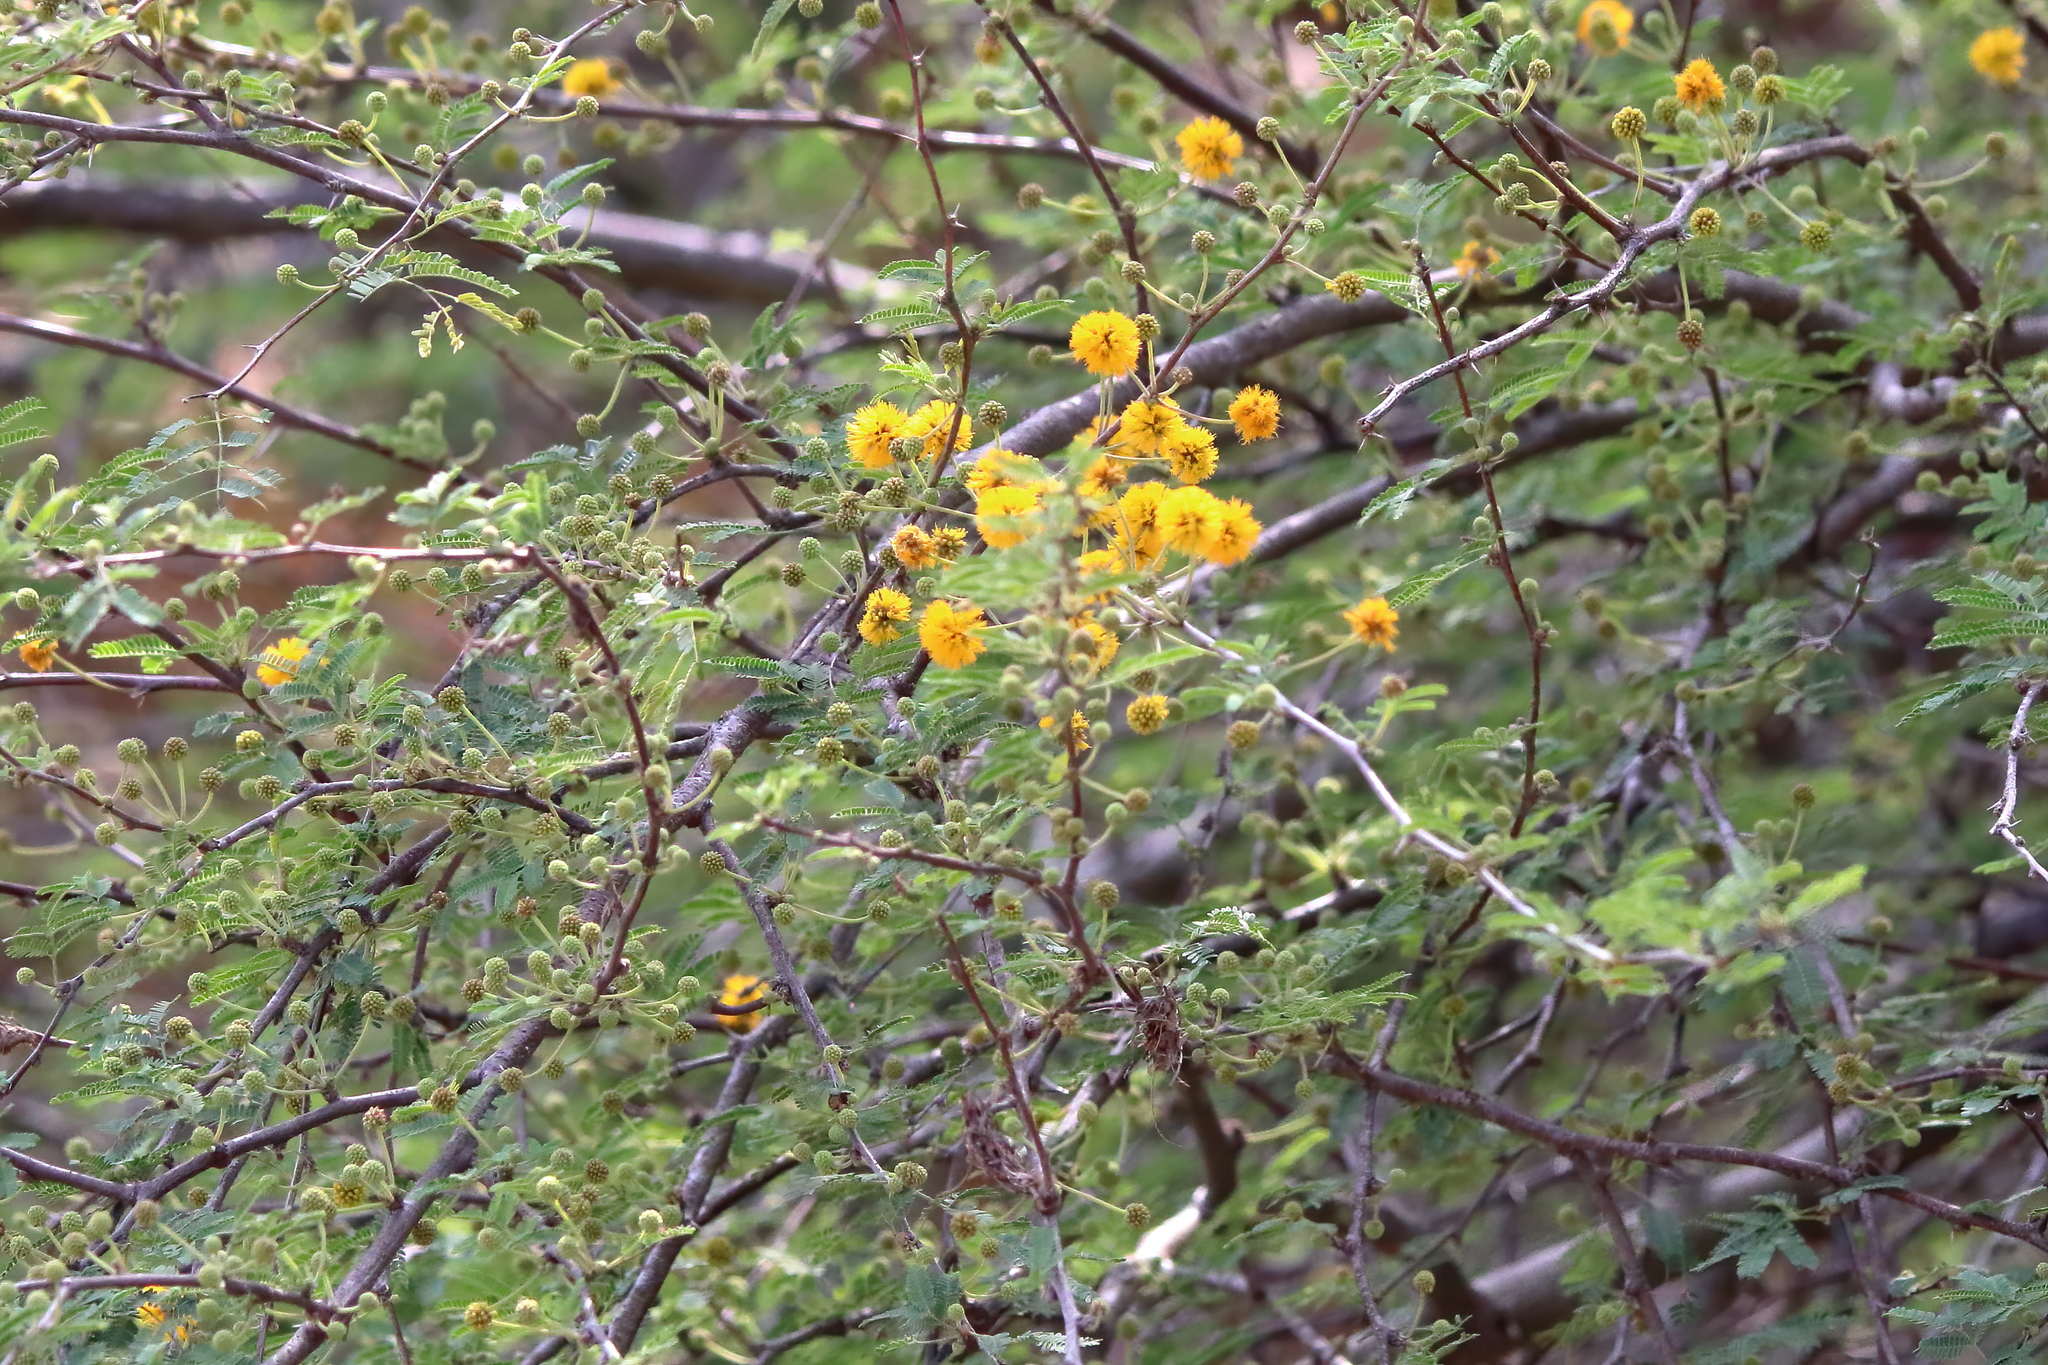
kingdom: Plantae
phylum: Tracheophyta
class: Magnoliopsida
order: Fabales
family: Fabaceae
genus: Vachellia
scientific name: Vachellia farnesiana
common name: Sweet acacia
